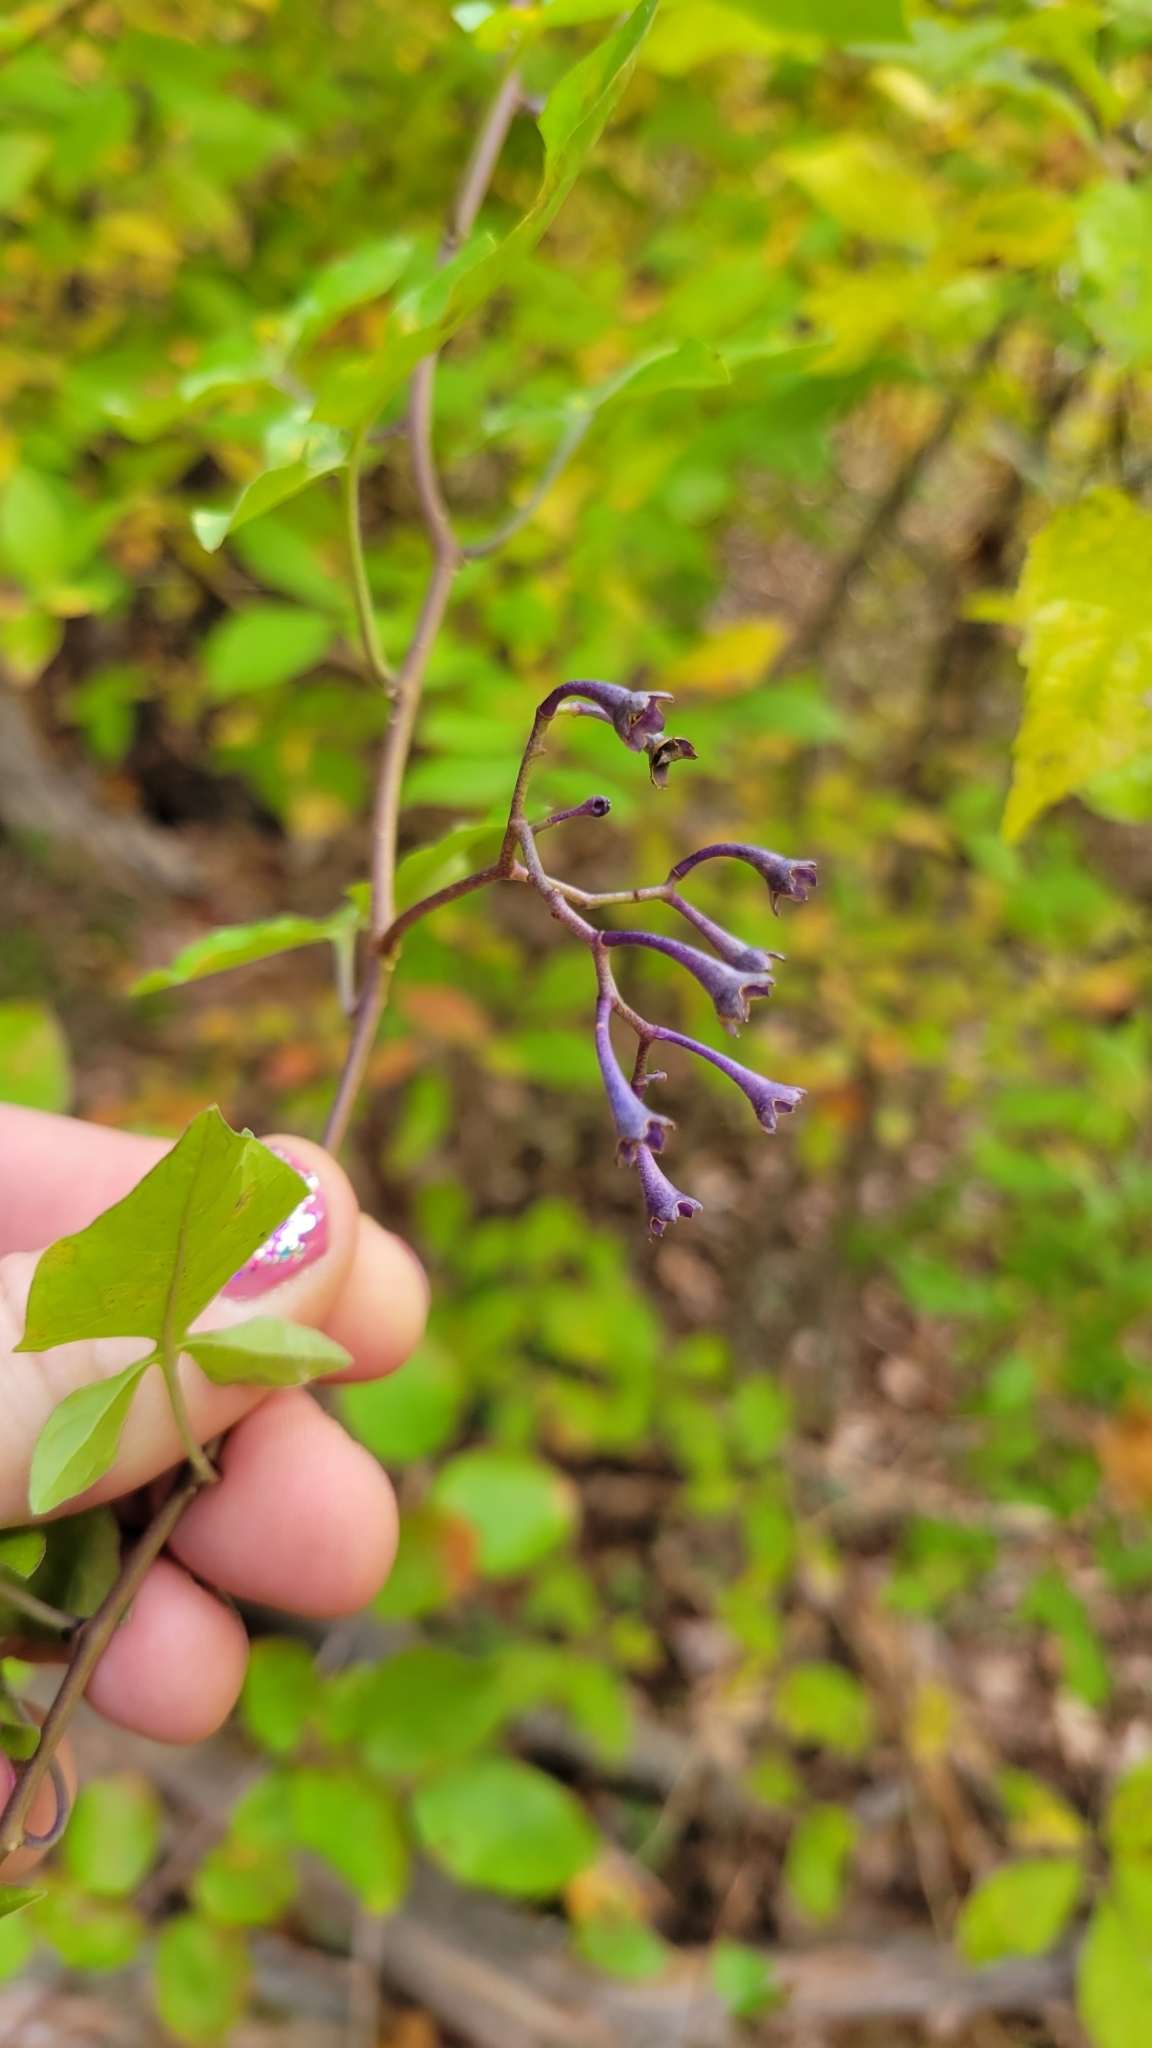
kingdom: Plantae
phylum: Tracheophyta
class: Magnoliopsida
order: Solanales
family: Solanaceae
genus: Solanum
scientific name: Solanum dulcamara
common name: Climbing nightshade
